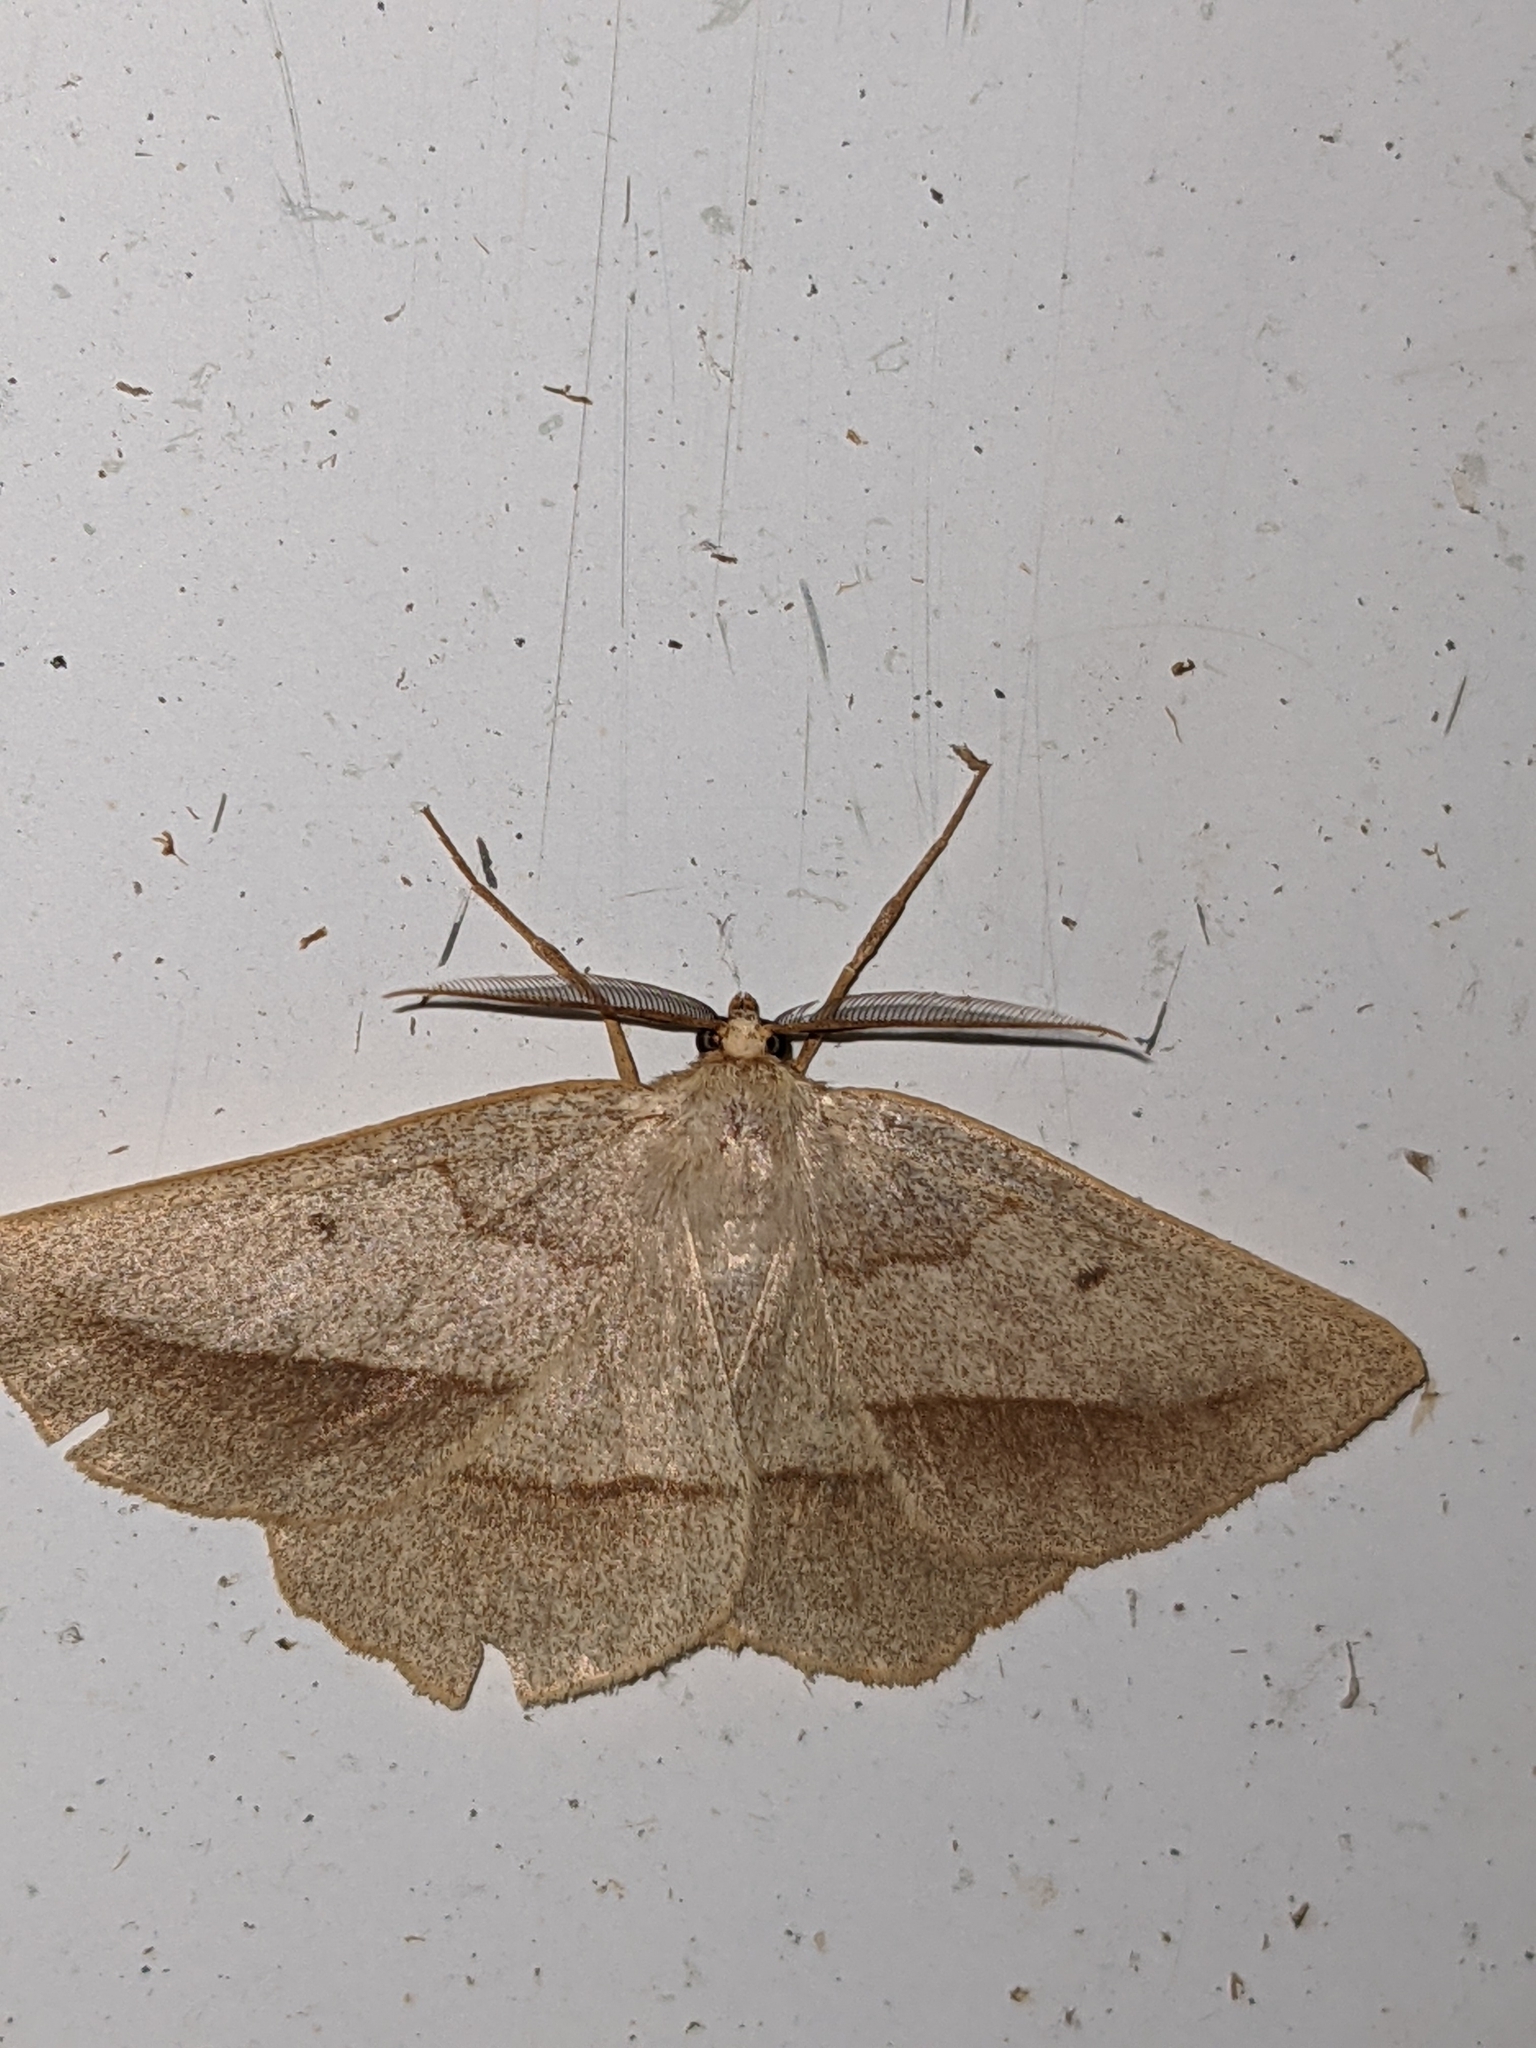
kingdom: Animalia
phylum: Arthropoda
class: Insecta
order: Lepidoptera
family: Geometridae
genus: Euchlaena
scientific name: Euchlaena irraria
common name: Least-marked euchlaena
